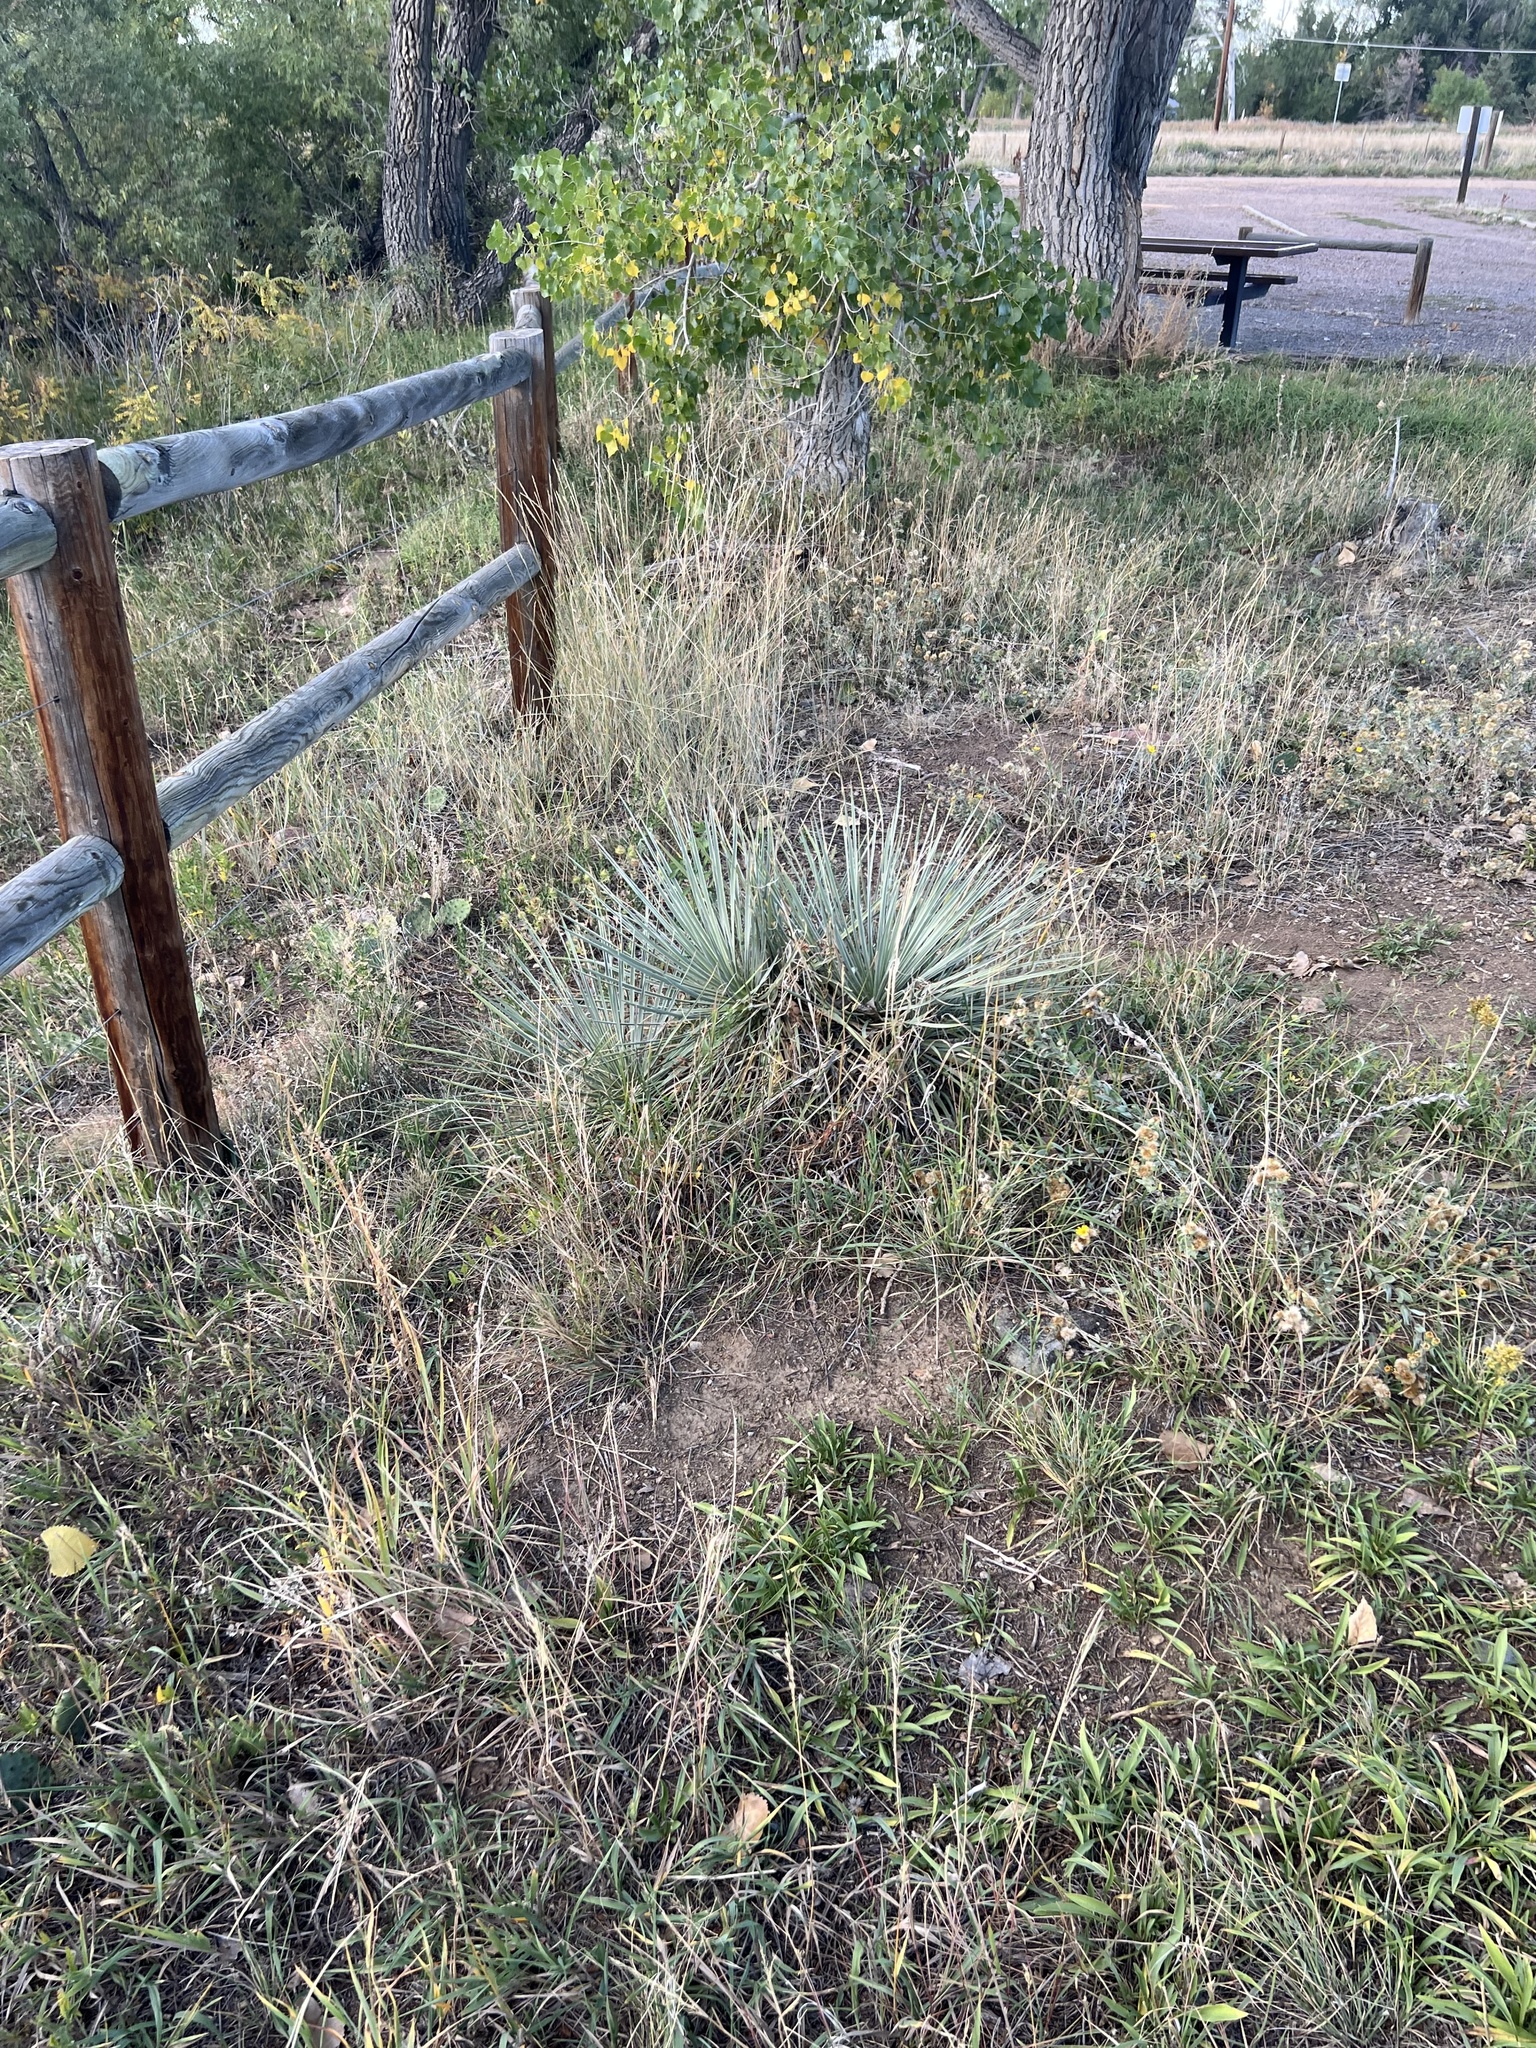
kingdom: Plantae
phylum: Tracheophyta
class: Liliopsida
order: Asparagales
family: Asparagaceae
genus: Yucca
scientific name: Yucca glauca
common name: Great plains yucca
